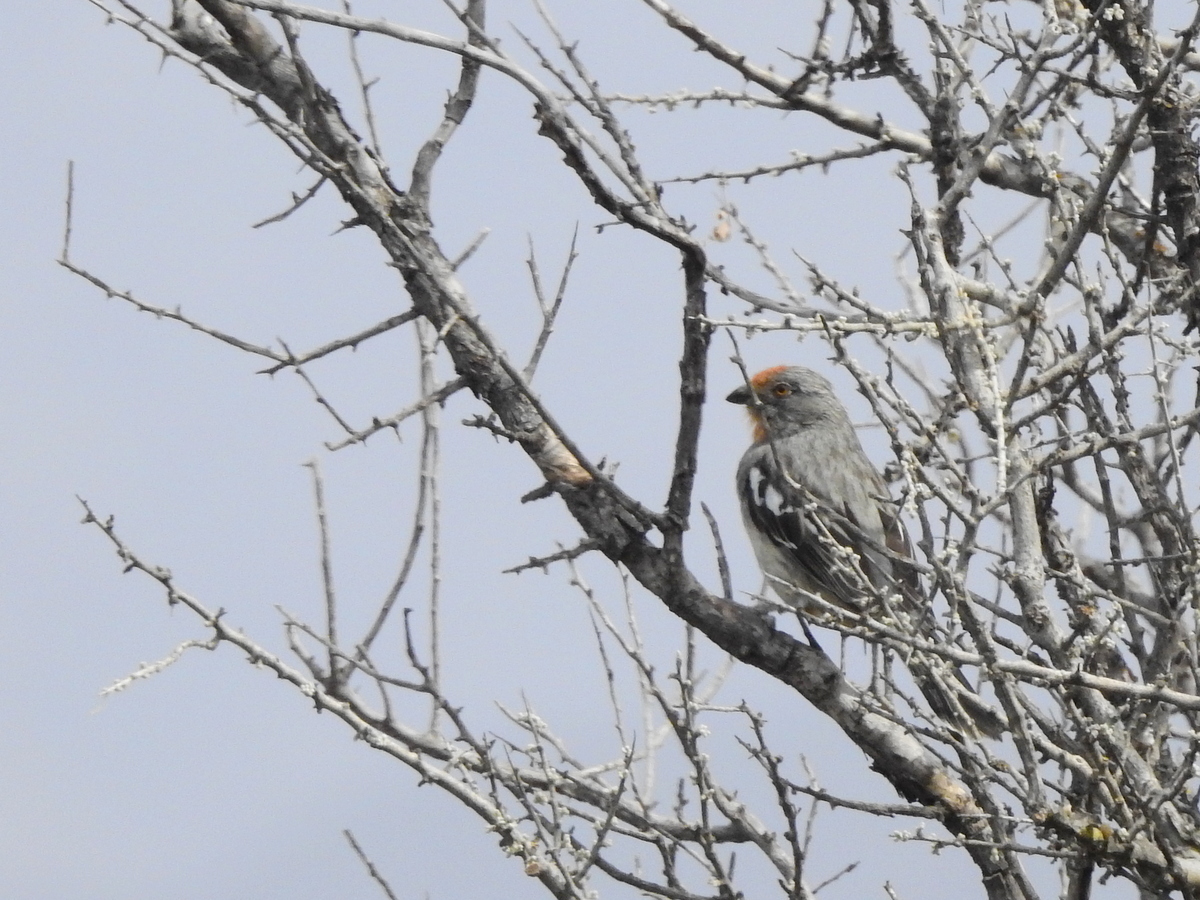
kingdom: Animalia
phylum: Chordata
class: Aves
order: Passeriformes
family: Cotingidae
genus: Phytotoma
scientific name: Phytotoma rutila
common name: White-tipped plantcutter
